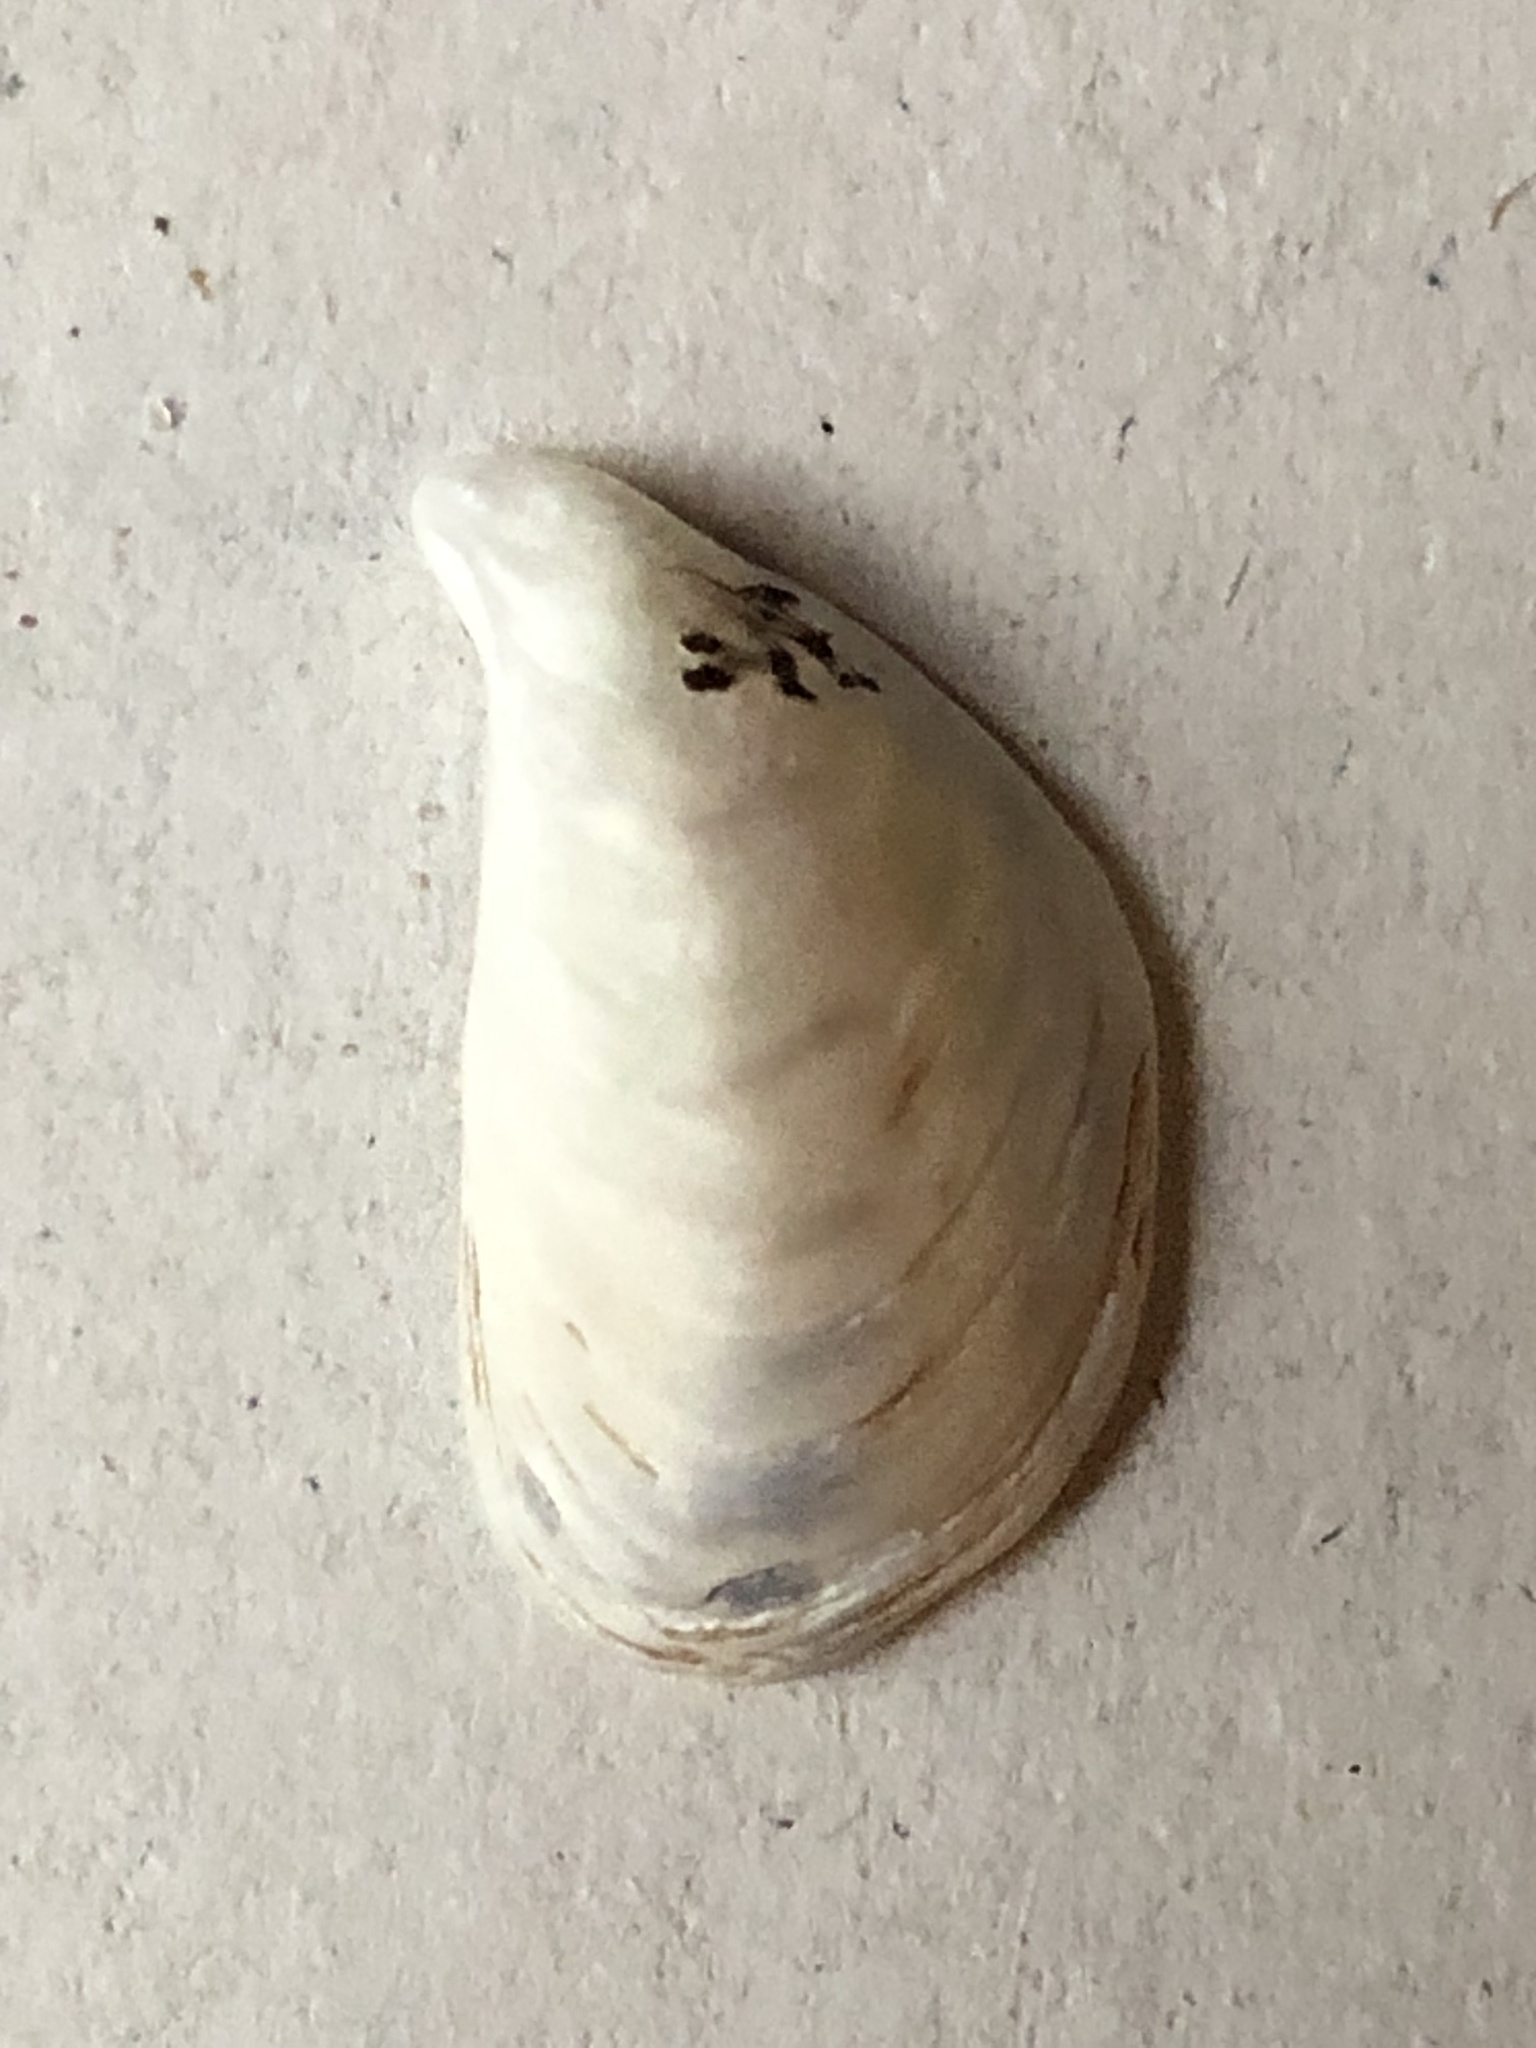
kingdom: Animalia
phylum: Mollusca
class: Bivalvia
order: Myida
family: Dreissenidae
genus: Dreissena
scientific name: Dreissena bugensis
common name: Quagga mussel
